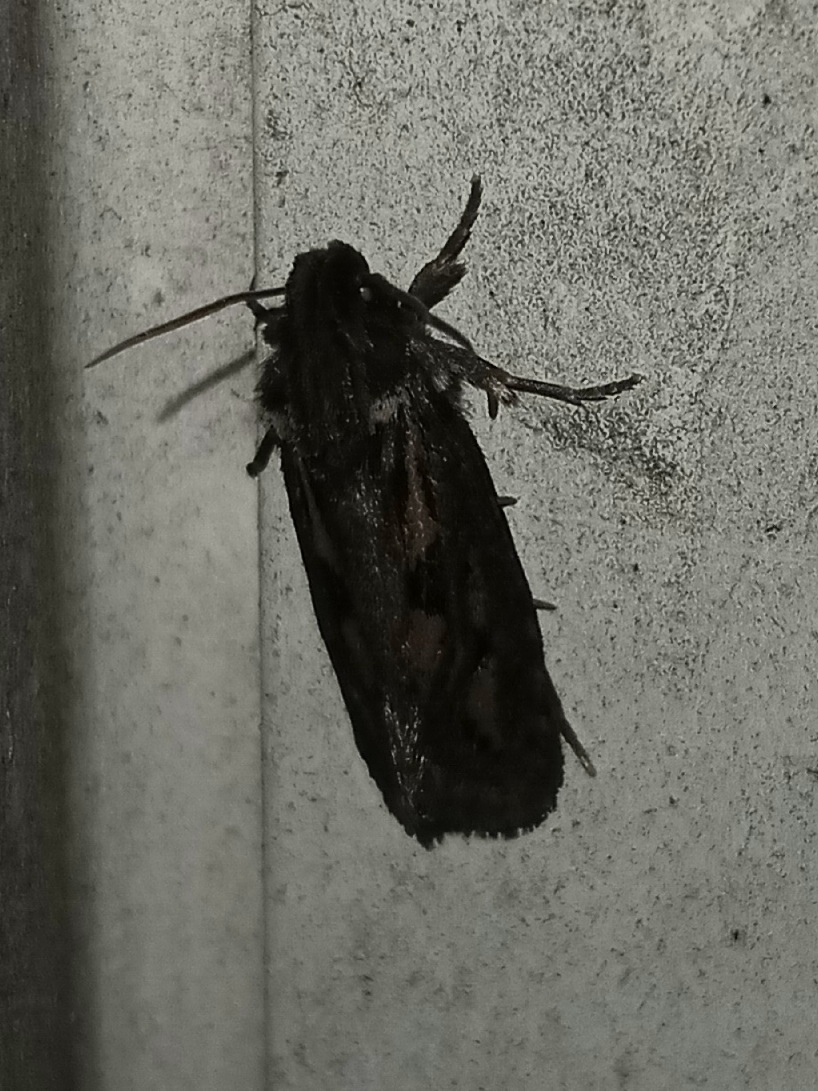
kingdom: Animalia
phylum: Arthropoda
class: Insecta
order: Lepidoptera
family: Tineidae
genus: Acrolophus
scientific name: Acrolophus popeanella
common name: Clemens' grass tubeworm moth
